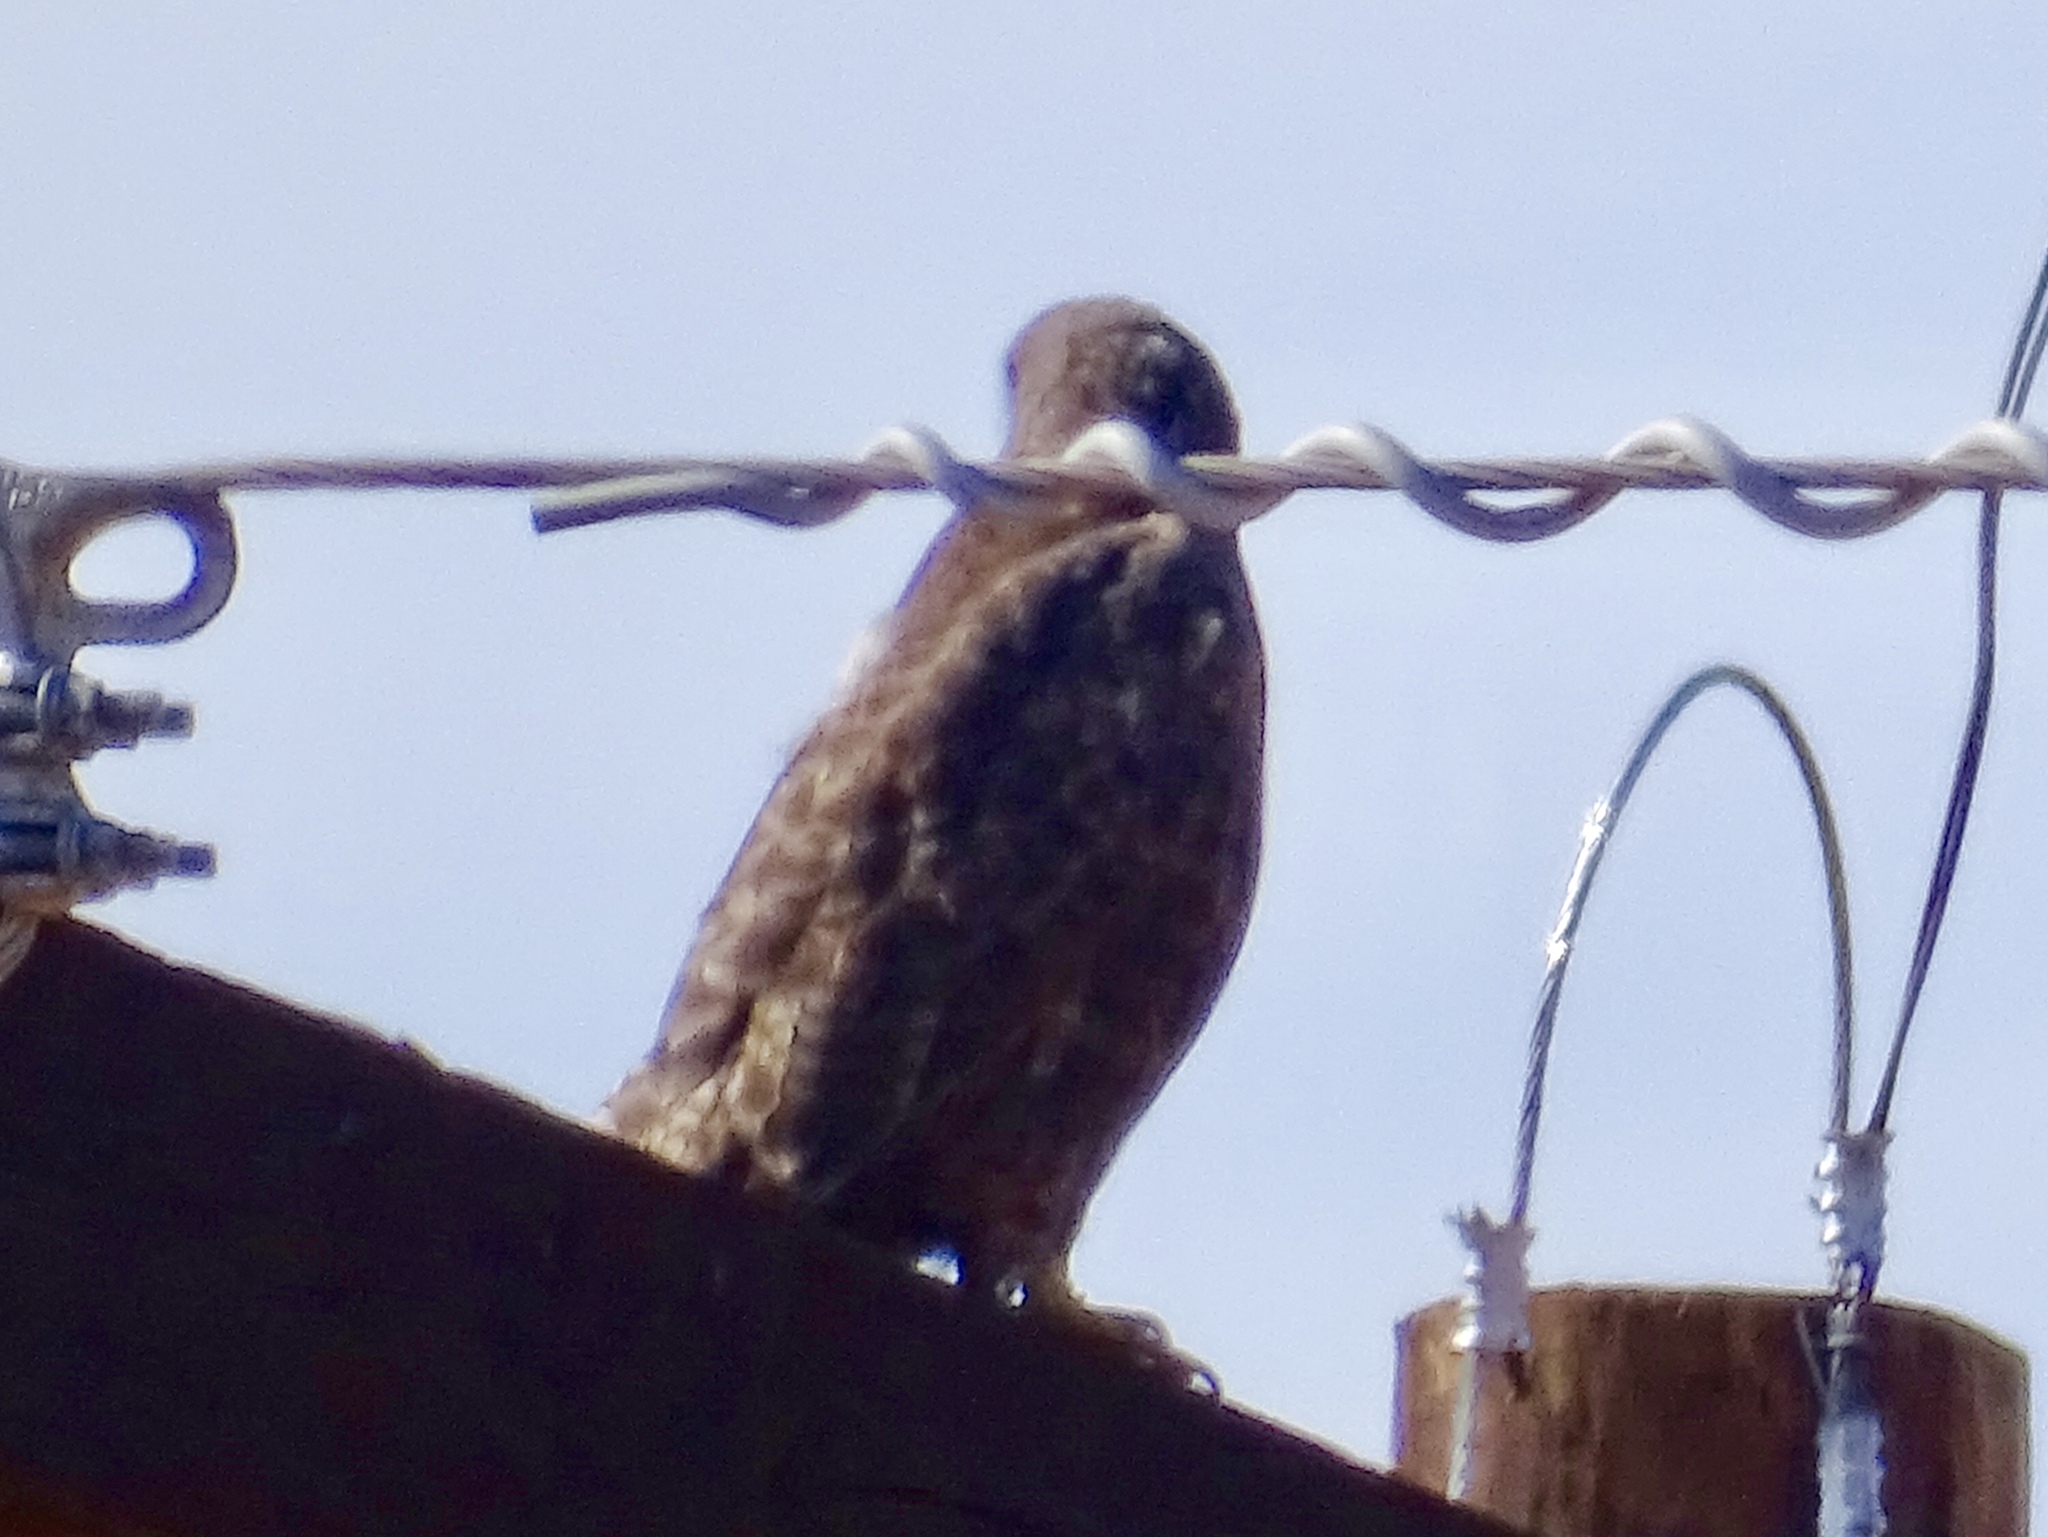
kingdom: Animalia
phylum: Chordata
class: Aves
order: Accipitriformes
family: Accipitridae
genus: Buteo
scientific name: Buteo jamaicensis
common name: Red-tailed hawk
